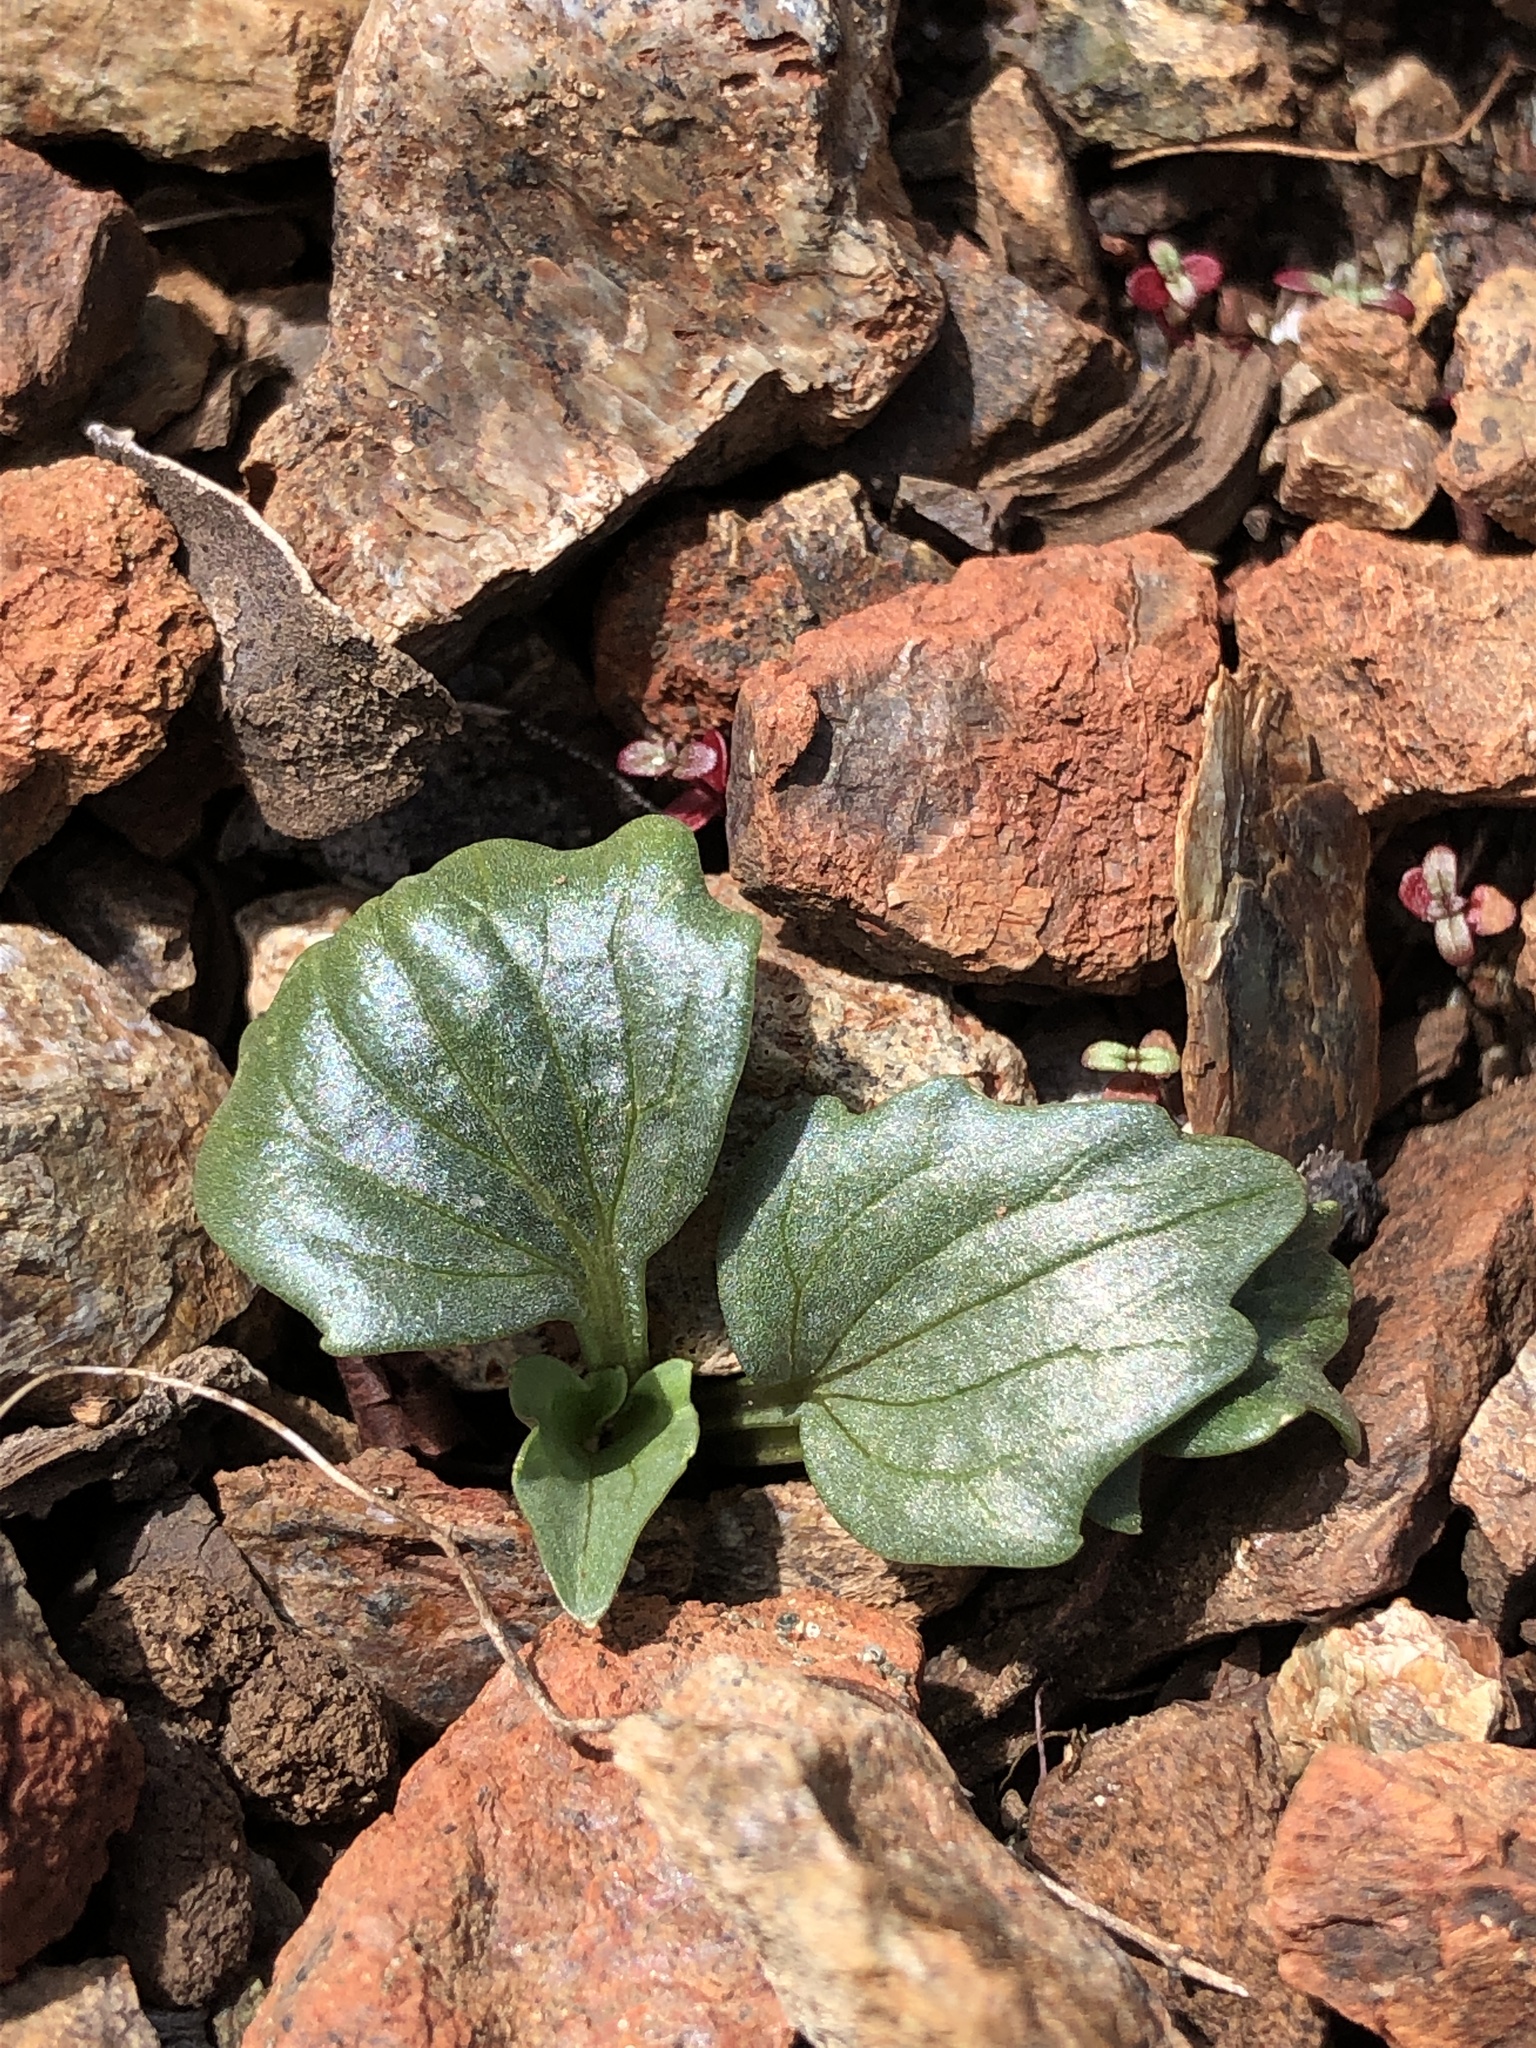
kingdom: Plantae
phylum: Tracheophyta
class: Magnoliopsida
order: Malpighiales
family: Violaceae
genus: Viola
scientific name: Viola purpurea
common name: Pine violet
